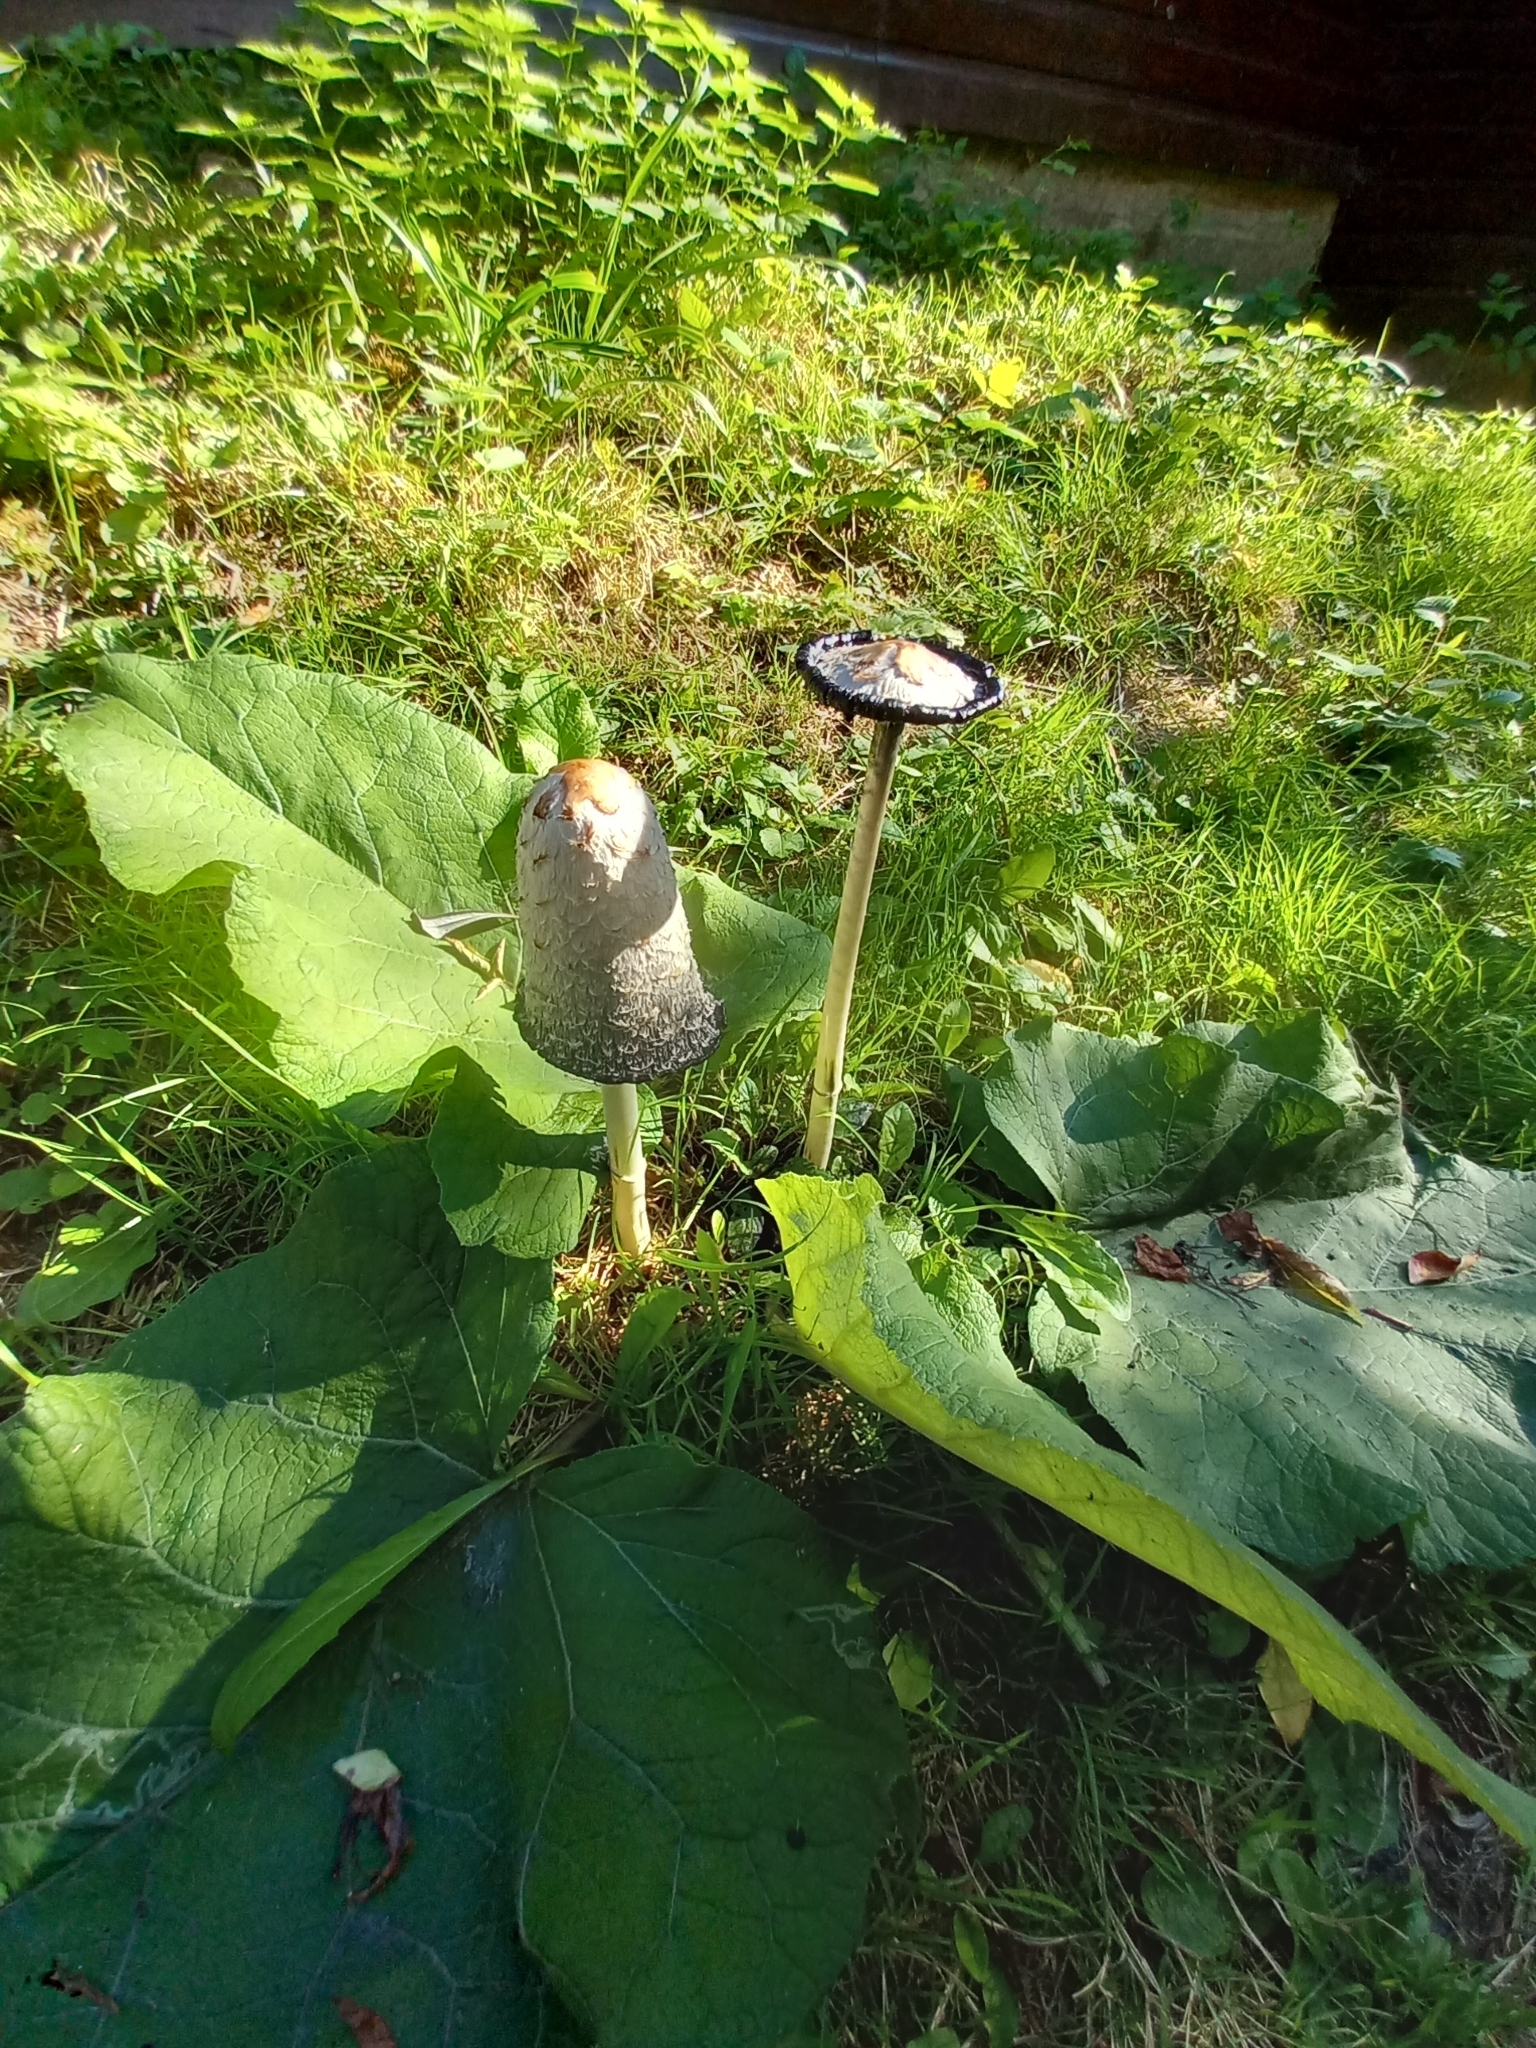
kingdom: Fungi
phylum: Basidiomycota
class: Agaricomycetes
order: Agaricales
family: Agaricaceae
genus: Coprinus
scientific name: Coprinus comatus
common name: Lawyer's wig
